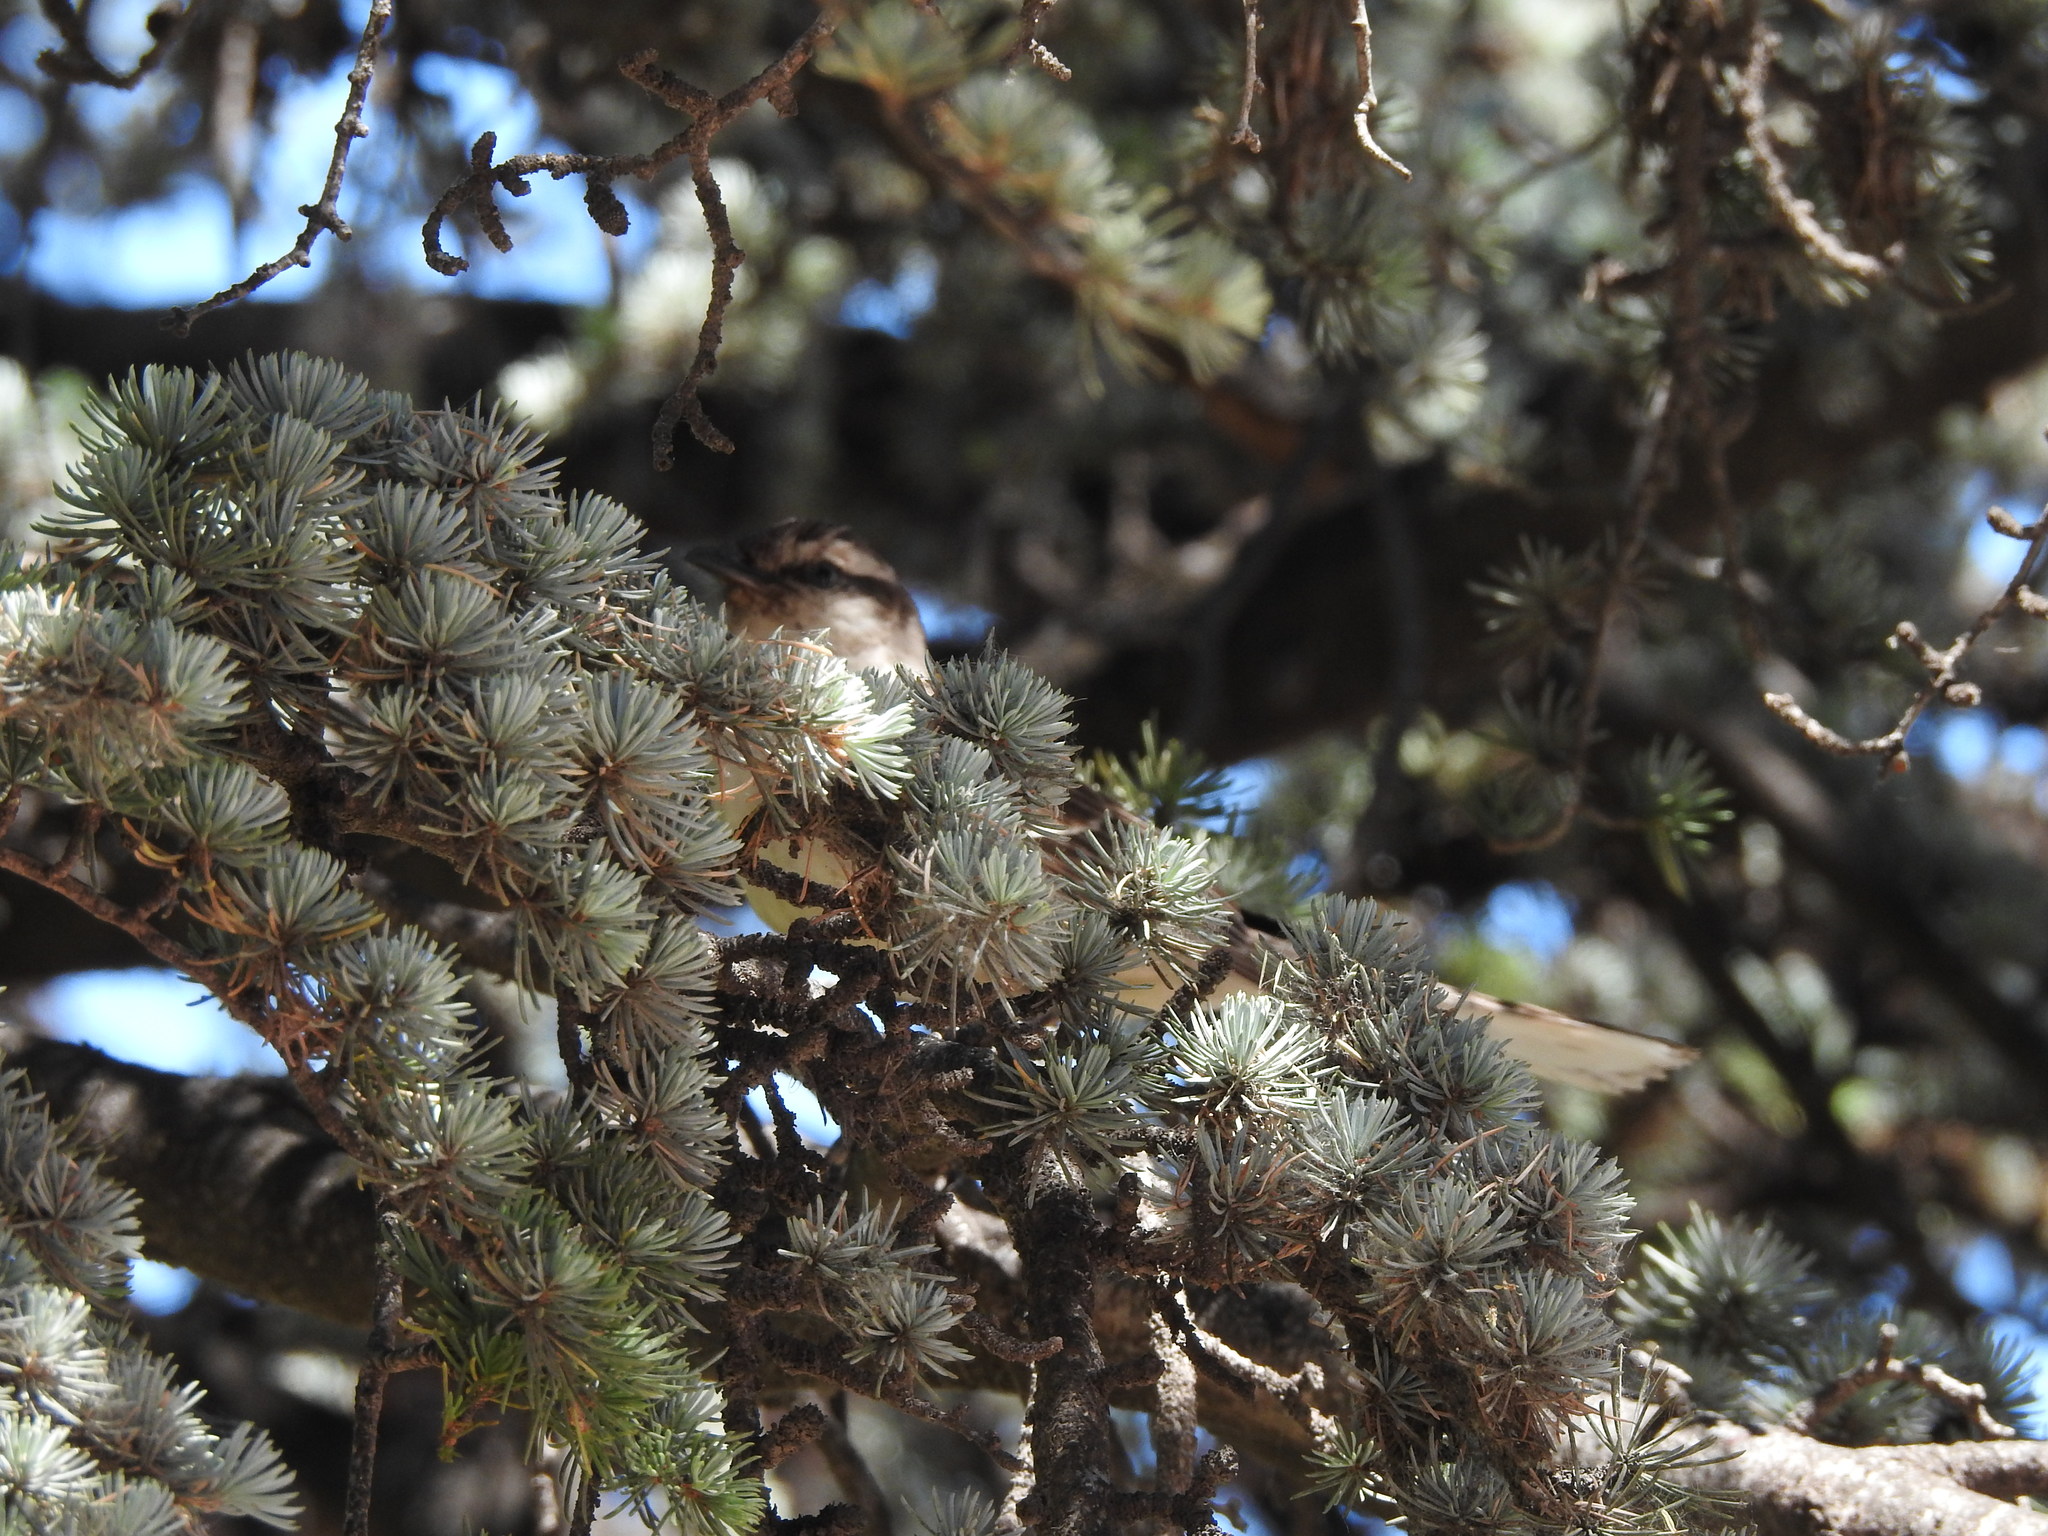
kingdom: Animalia
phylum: Chordata
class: Aves
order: Passeriformes
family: Mimidae
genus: Mimus
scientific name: Mimus saturninus
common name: Chalk-browed mockingbird
